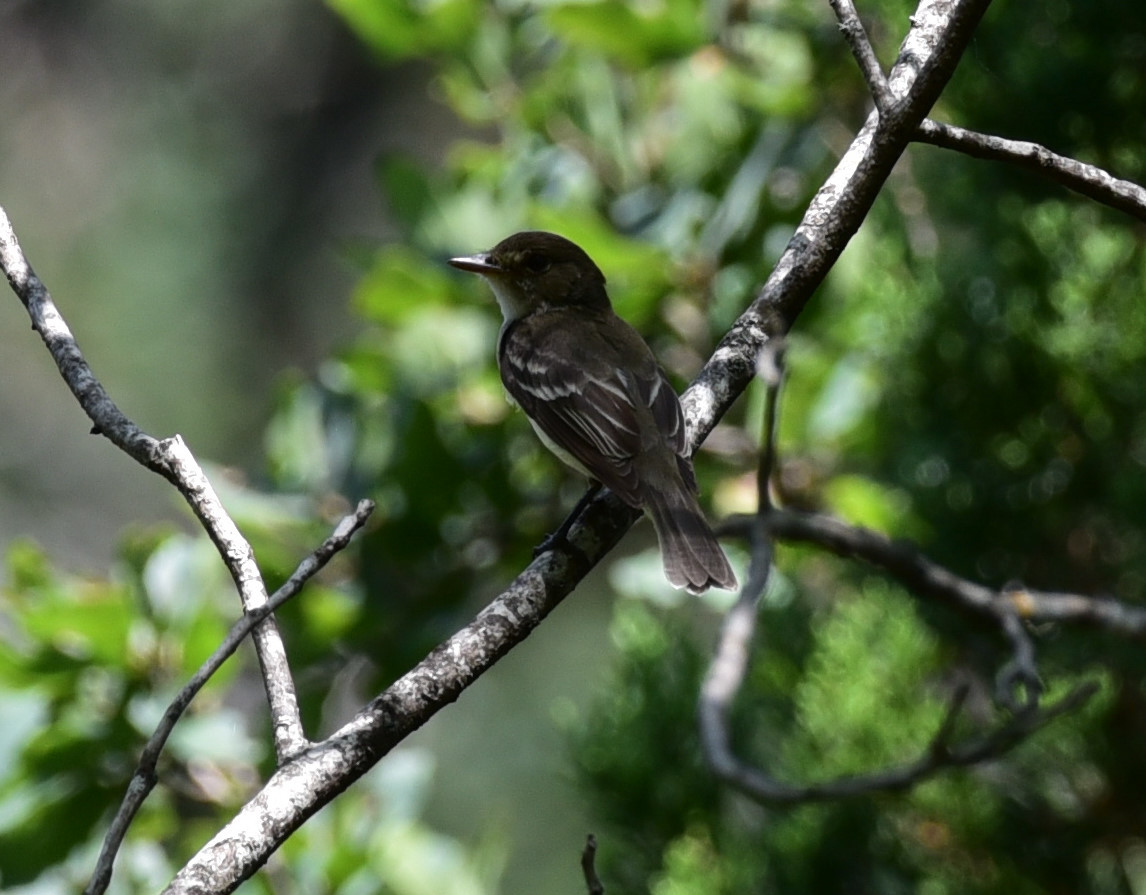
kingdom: Animalia
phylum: Chordata
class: Aves
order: Passeriformes
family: Tyrannidae
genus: Sayornis
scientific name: Sayornis phoebe
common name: Eastern phoebe
